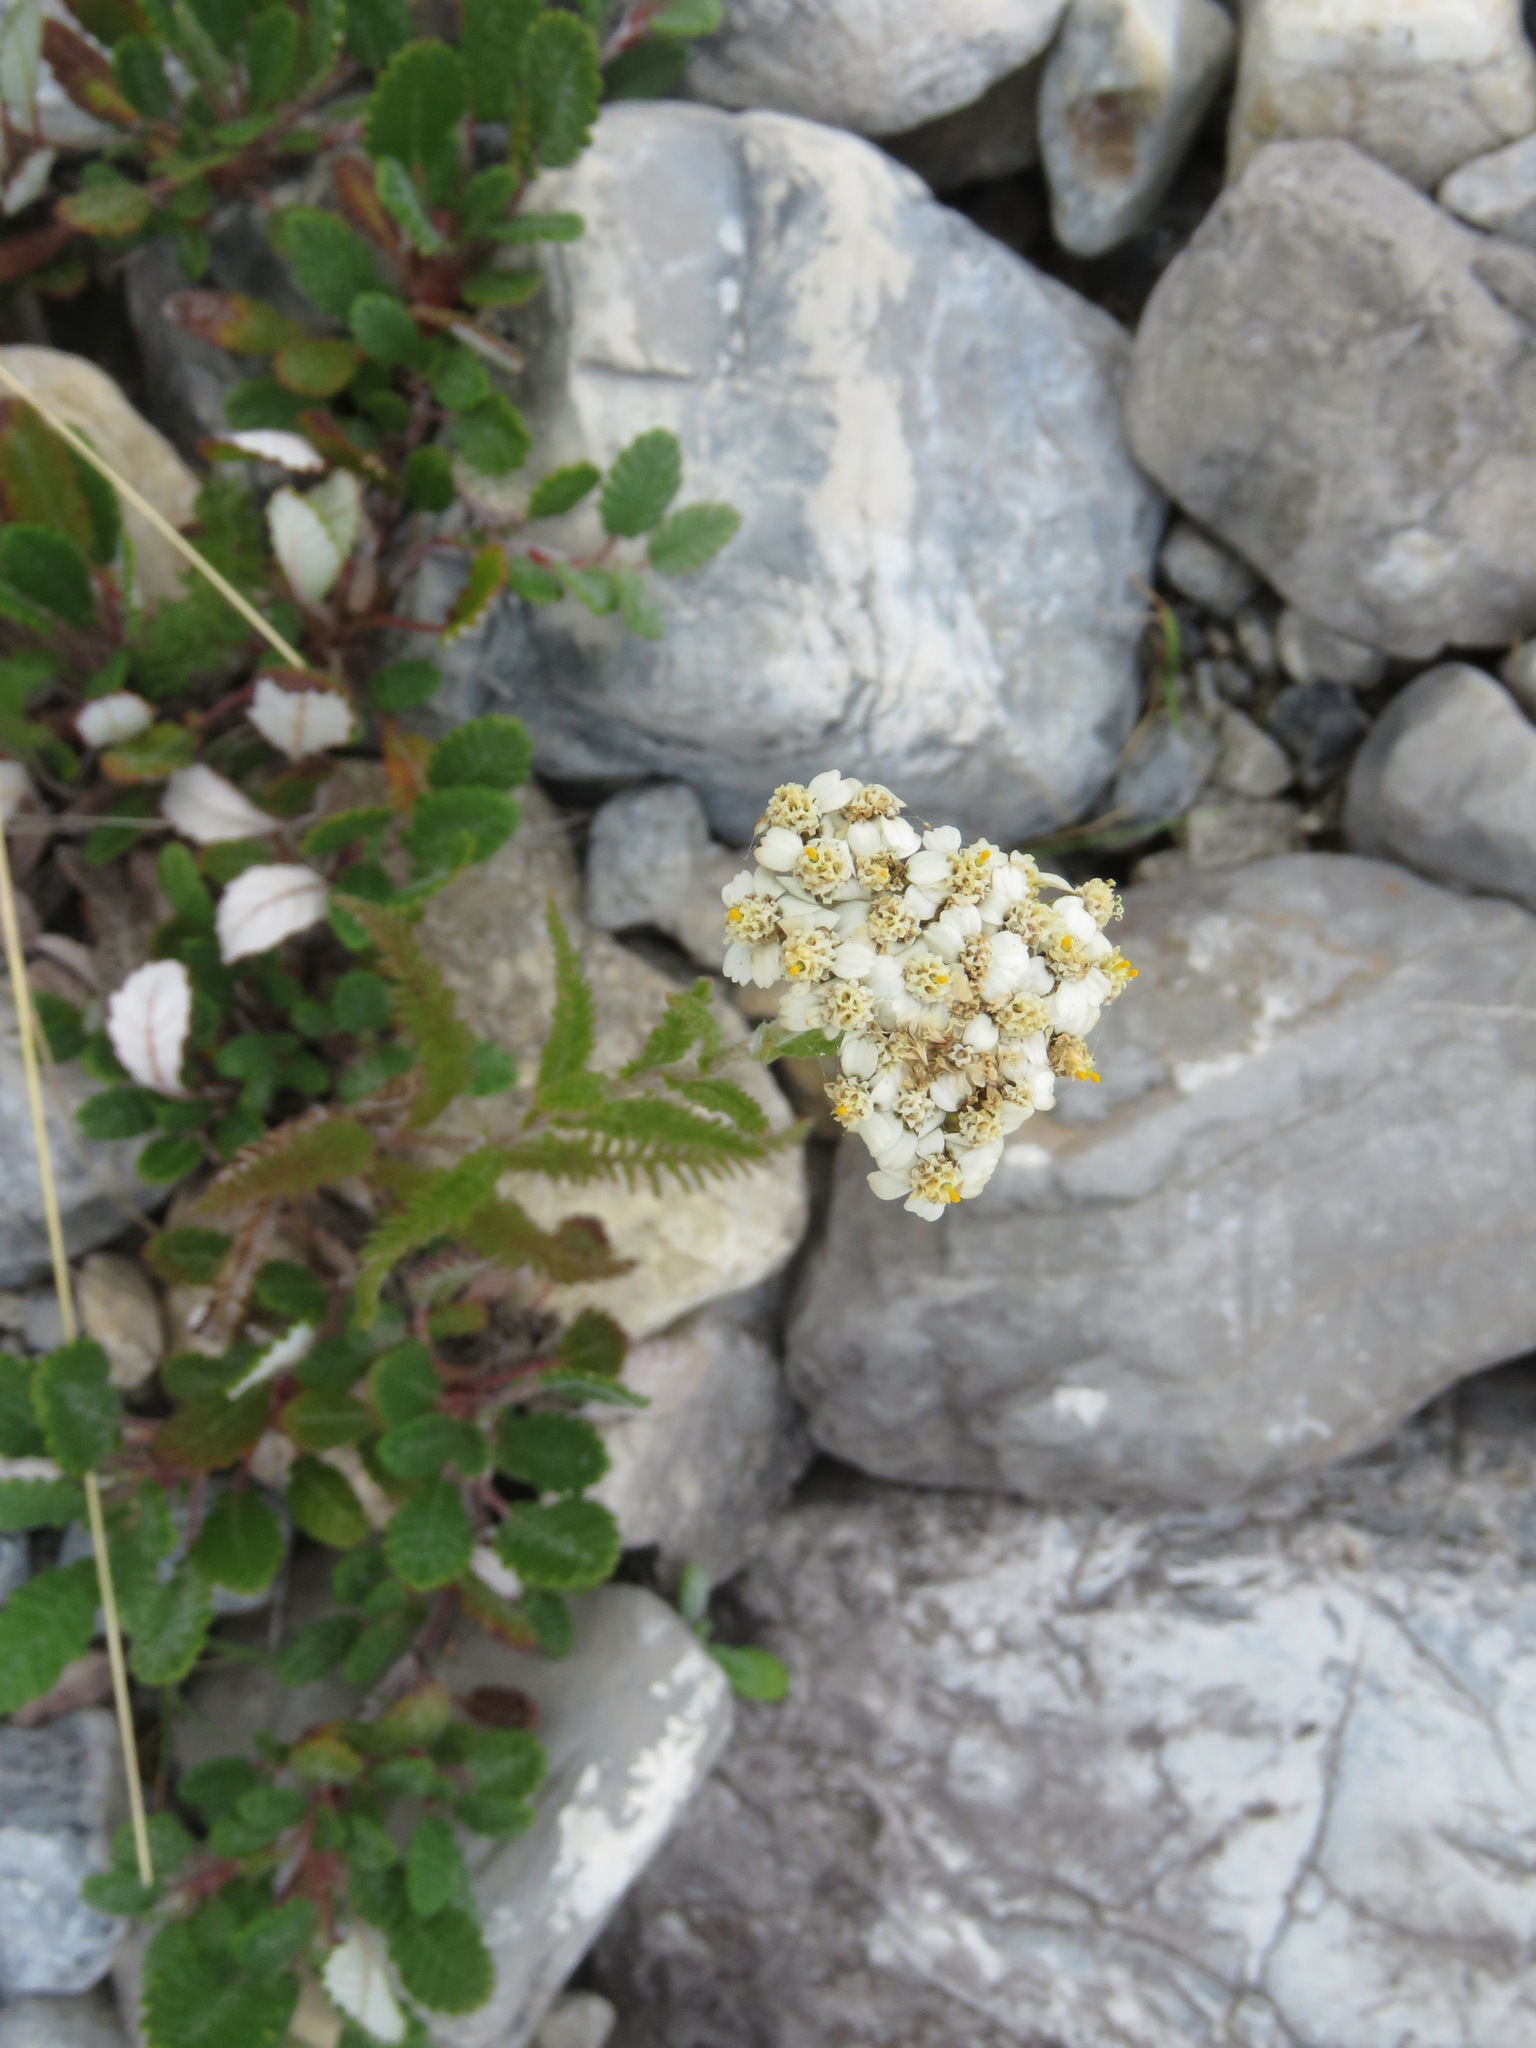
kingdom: Plantae
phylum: Tracheophyta
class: Magnoliopsida
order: Asterales
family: Asteraceae
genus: Achillea
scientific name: Achillea millefolium
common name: Yarrow
